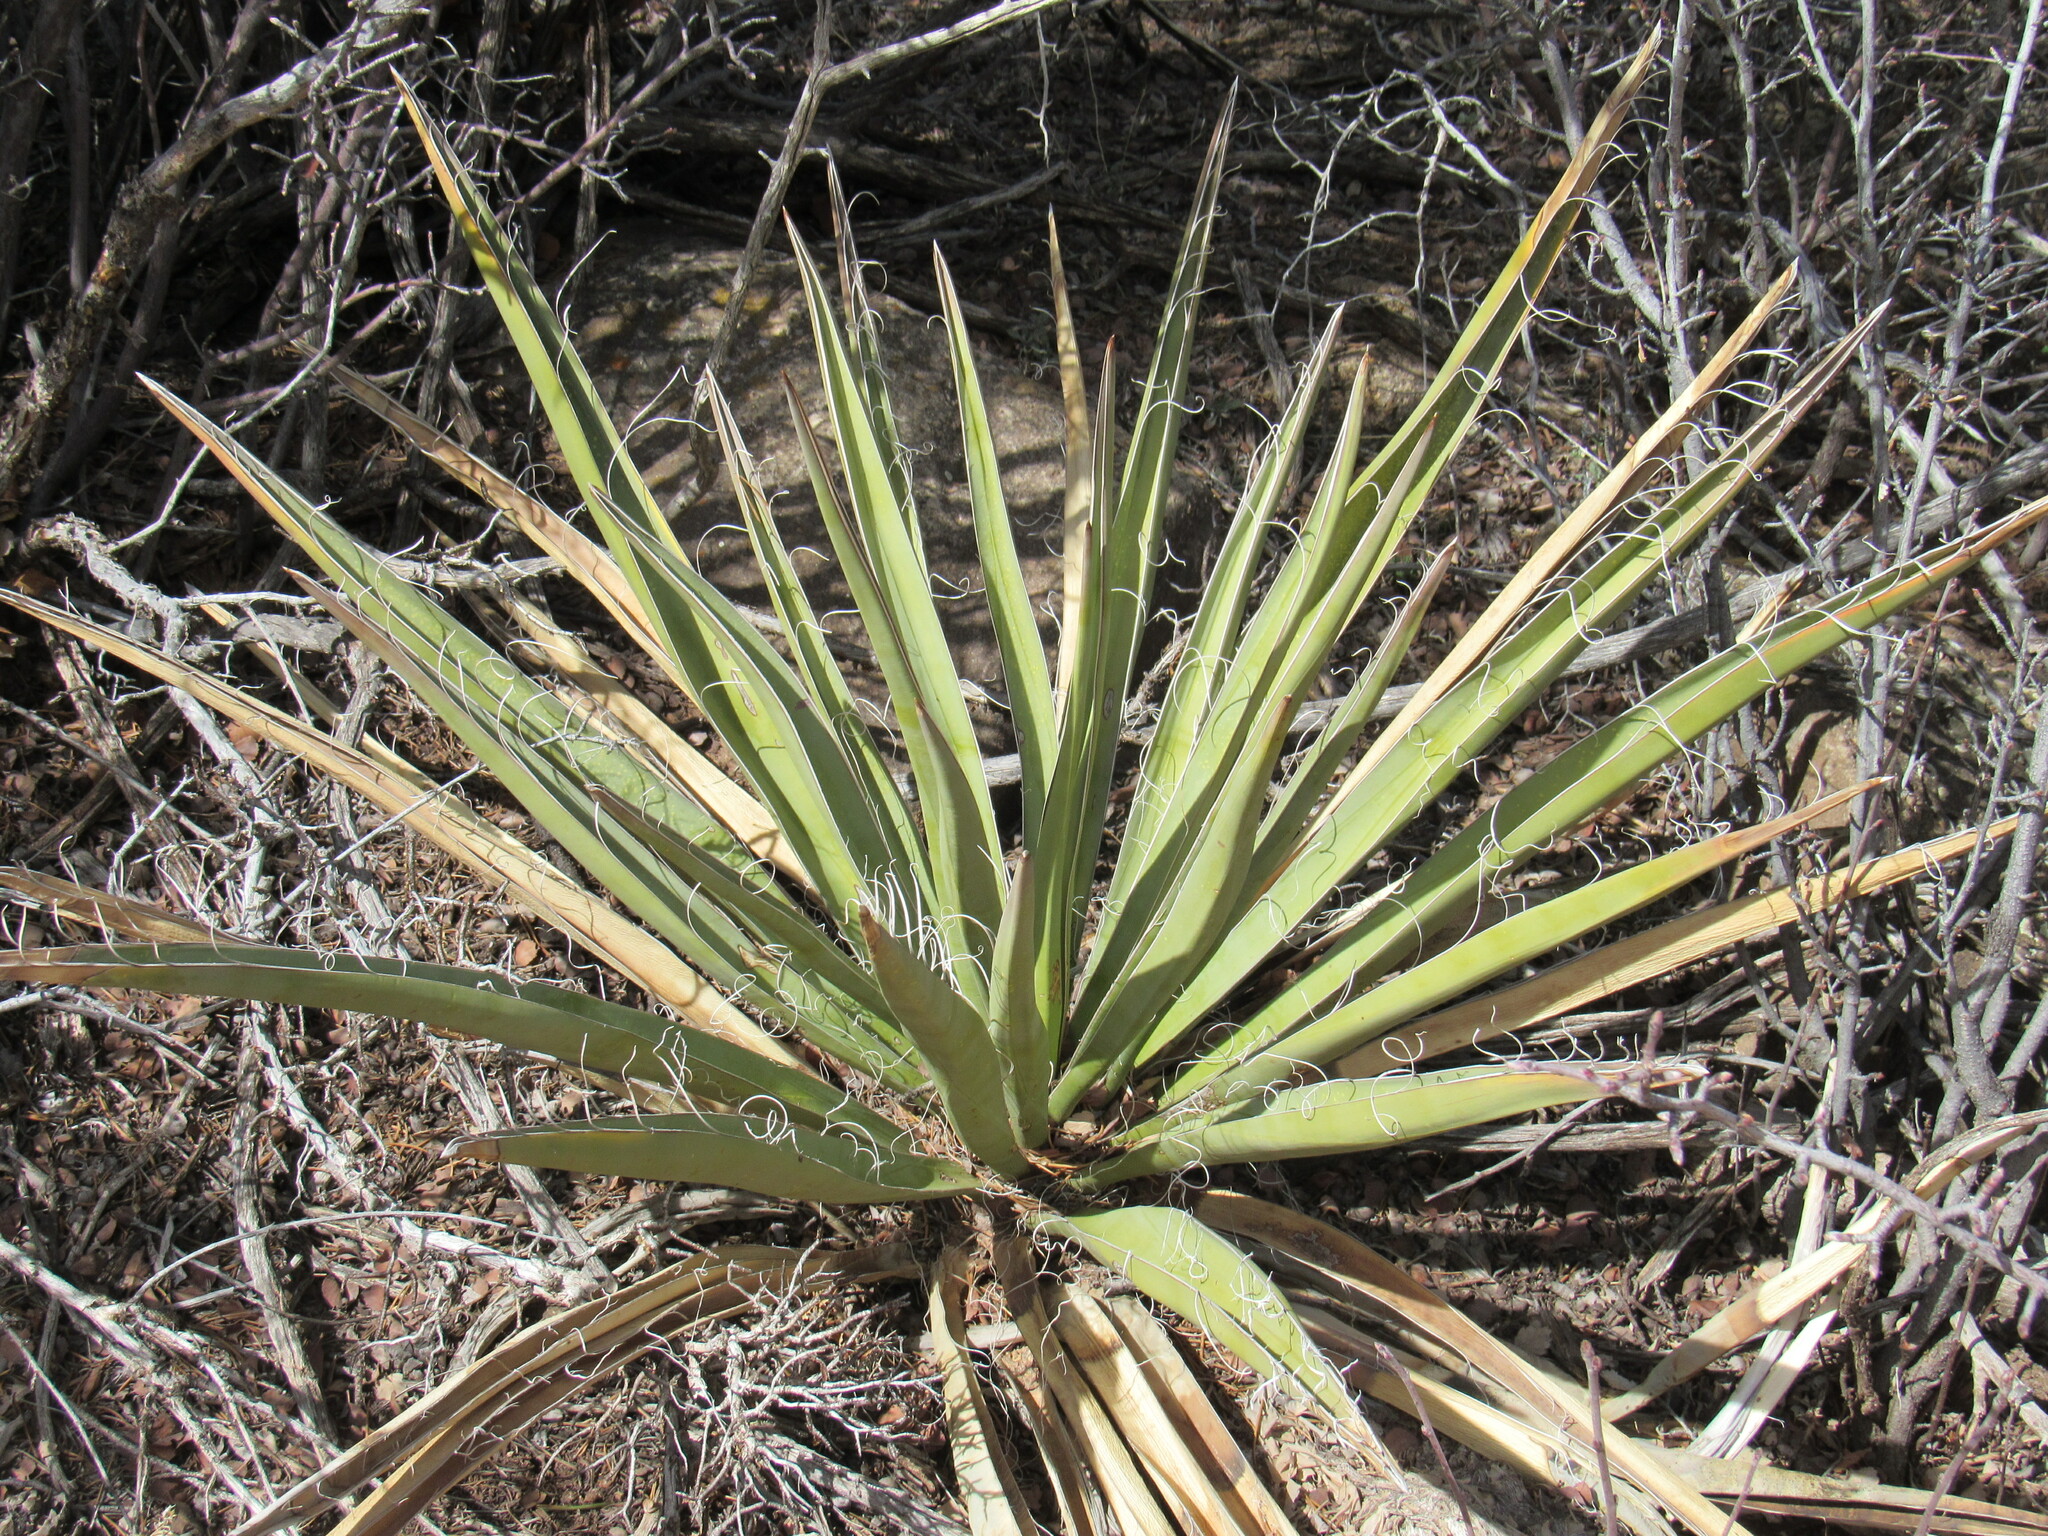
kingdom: Plantae
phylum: Tracheophyta
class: Liliopsida
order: Asparagales
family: Asparagaceae
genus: Yucca
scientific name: Yucca baccata
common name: Banana yucca
